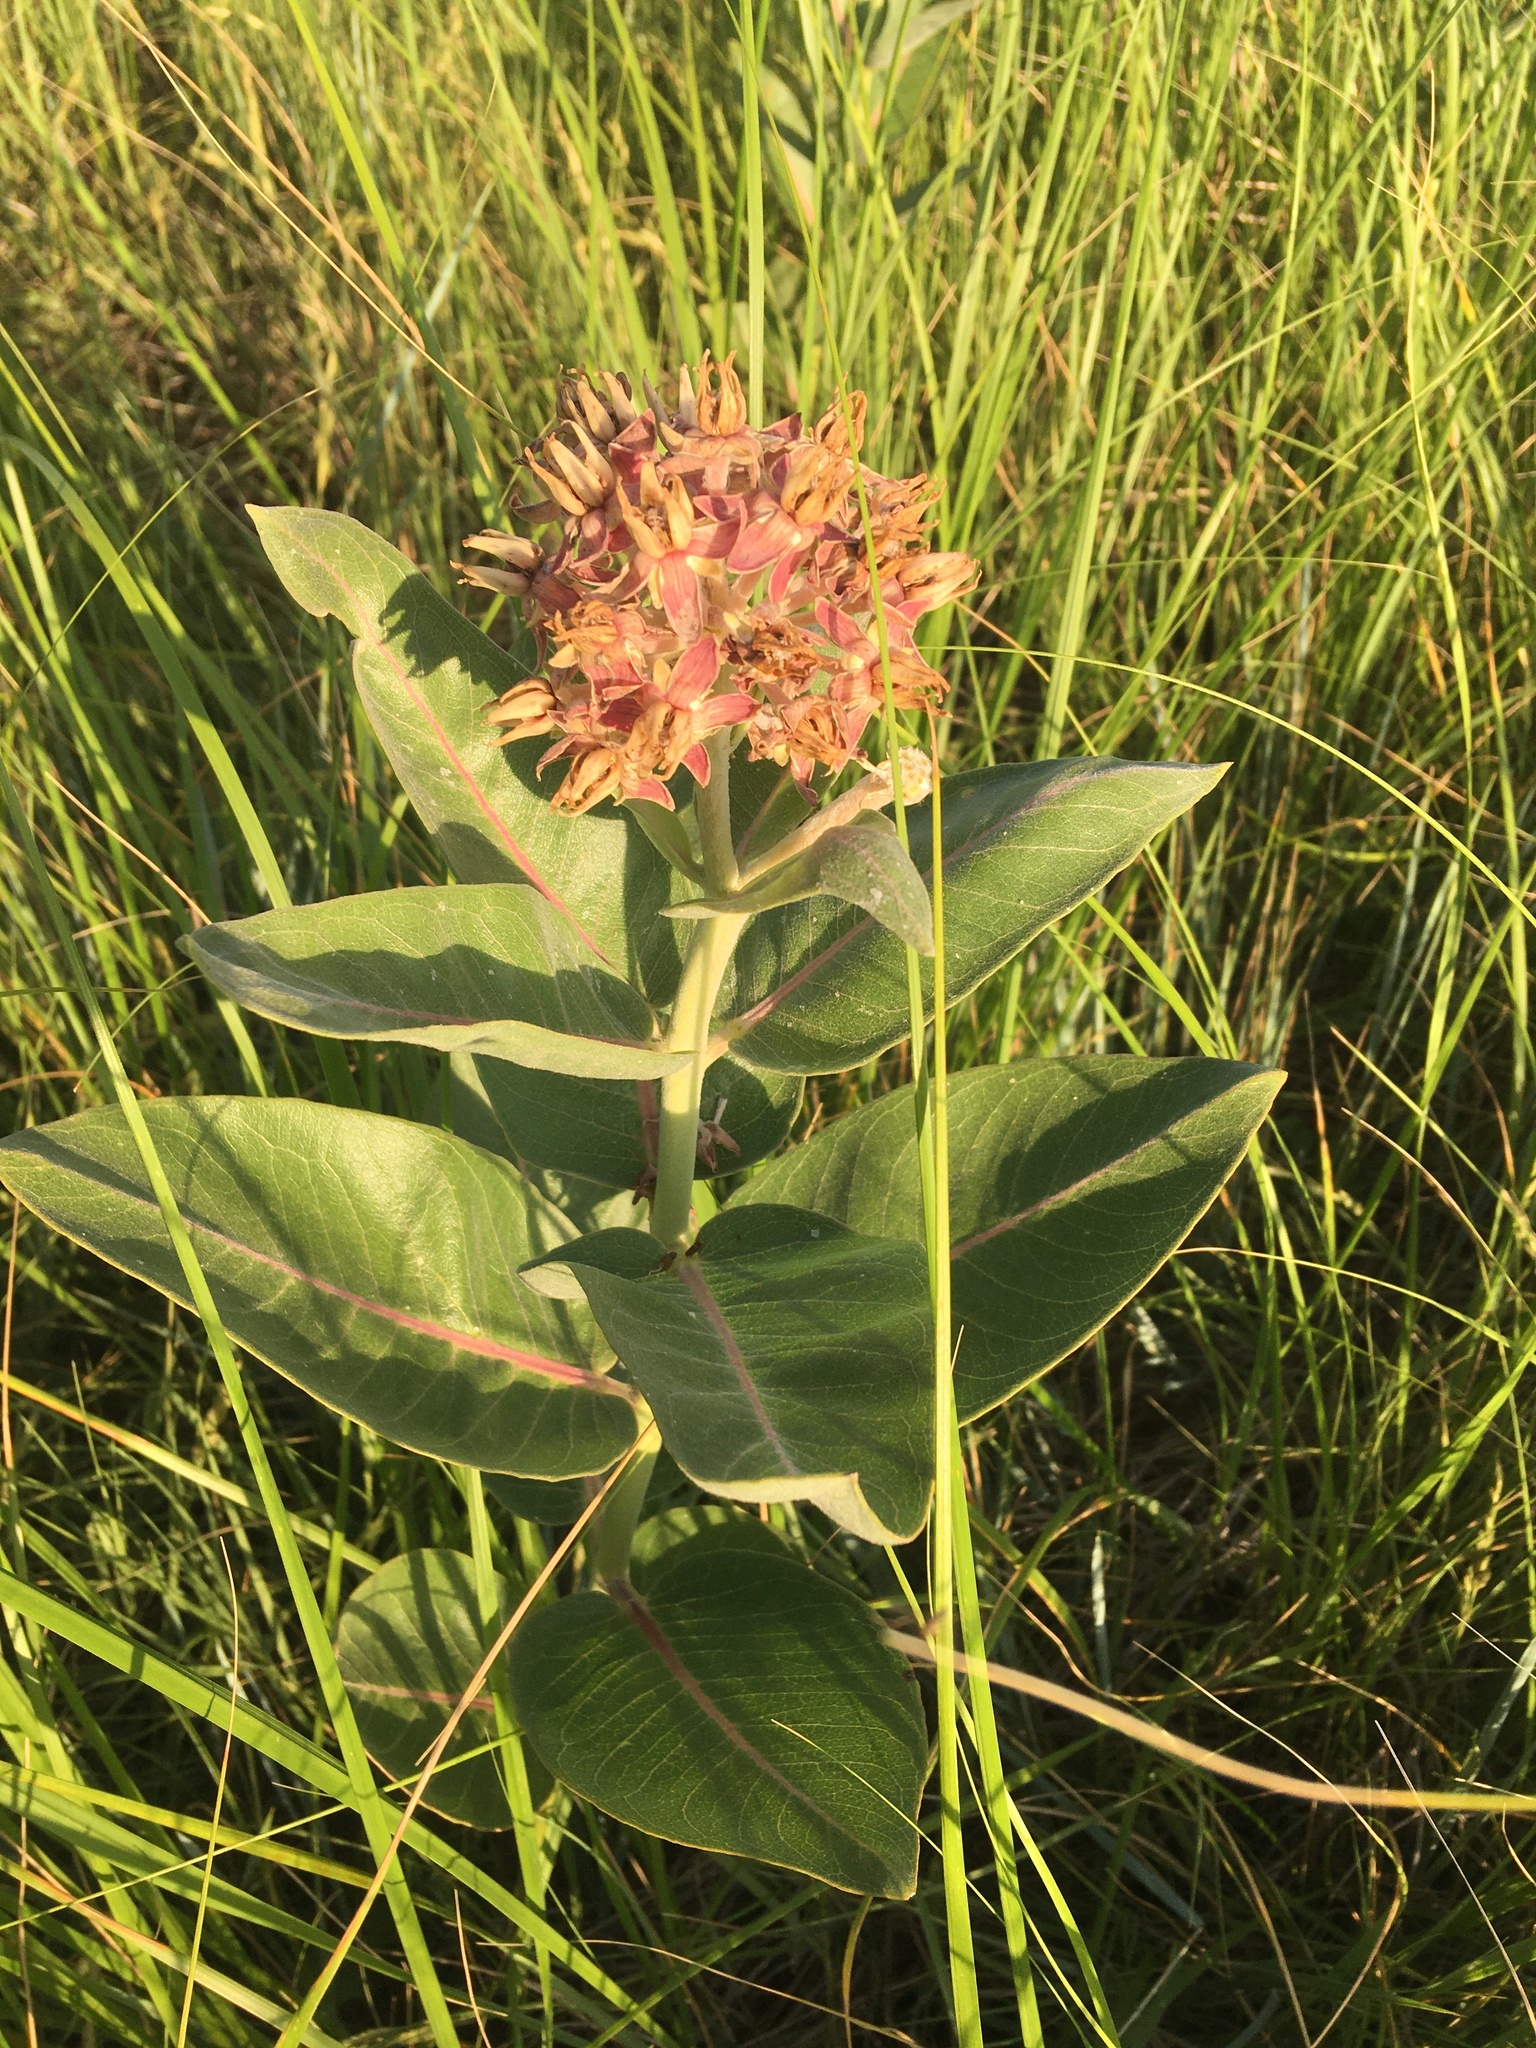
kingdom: Plantae
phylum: Tracheophyta
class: Magnoliopsida
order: Gentianales
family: Apocynaceae
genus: Asclepias
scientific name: Asclepias speciosa
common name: Showy milkweed
